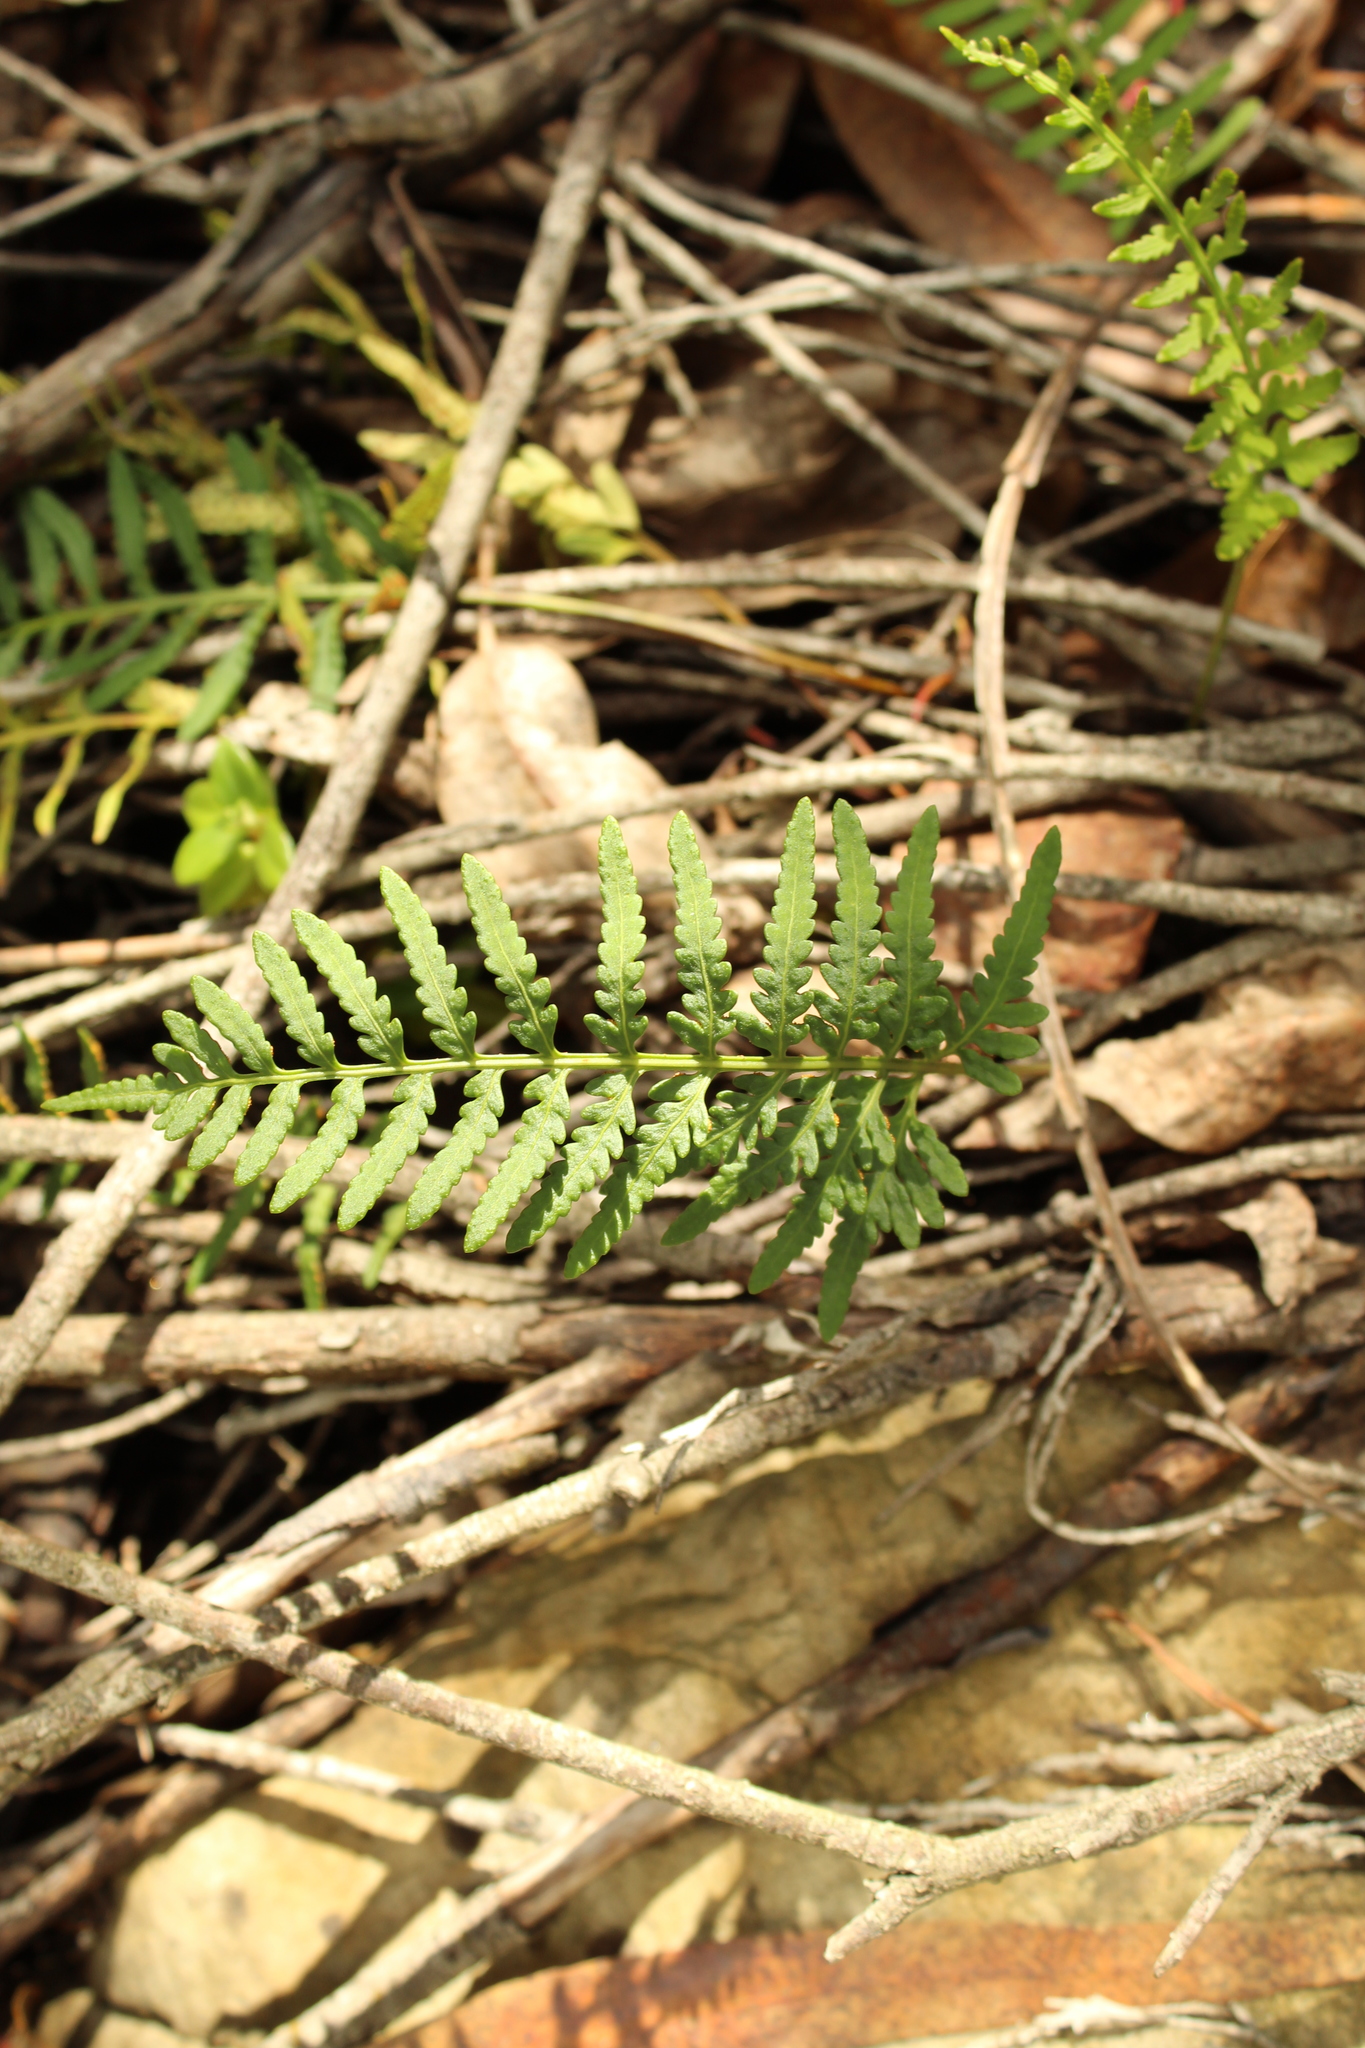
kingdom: Plantae
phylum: Tracheophyta
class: Polypodiopsida
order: Polypodiales
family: Polypodiaceae
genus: Pleopeltis
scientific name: Pleopeltis murora
